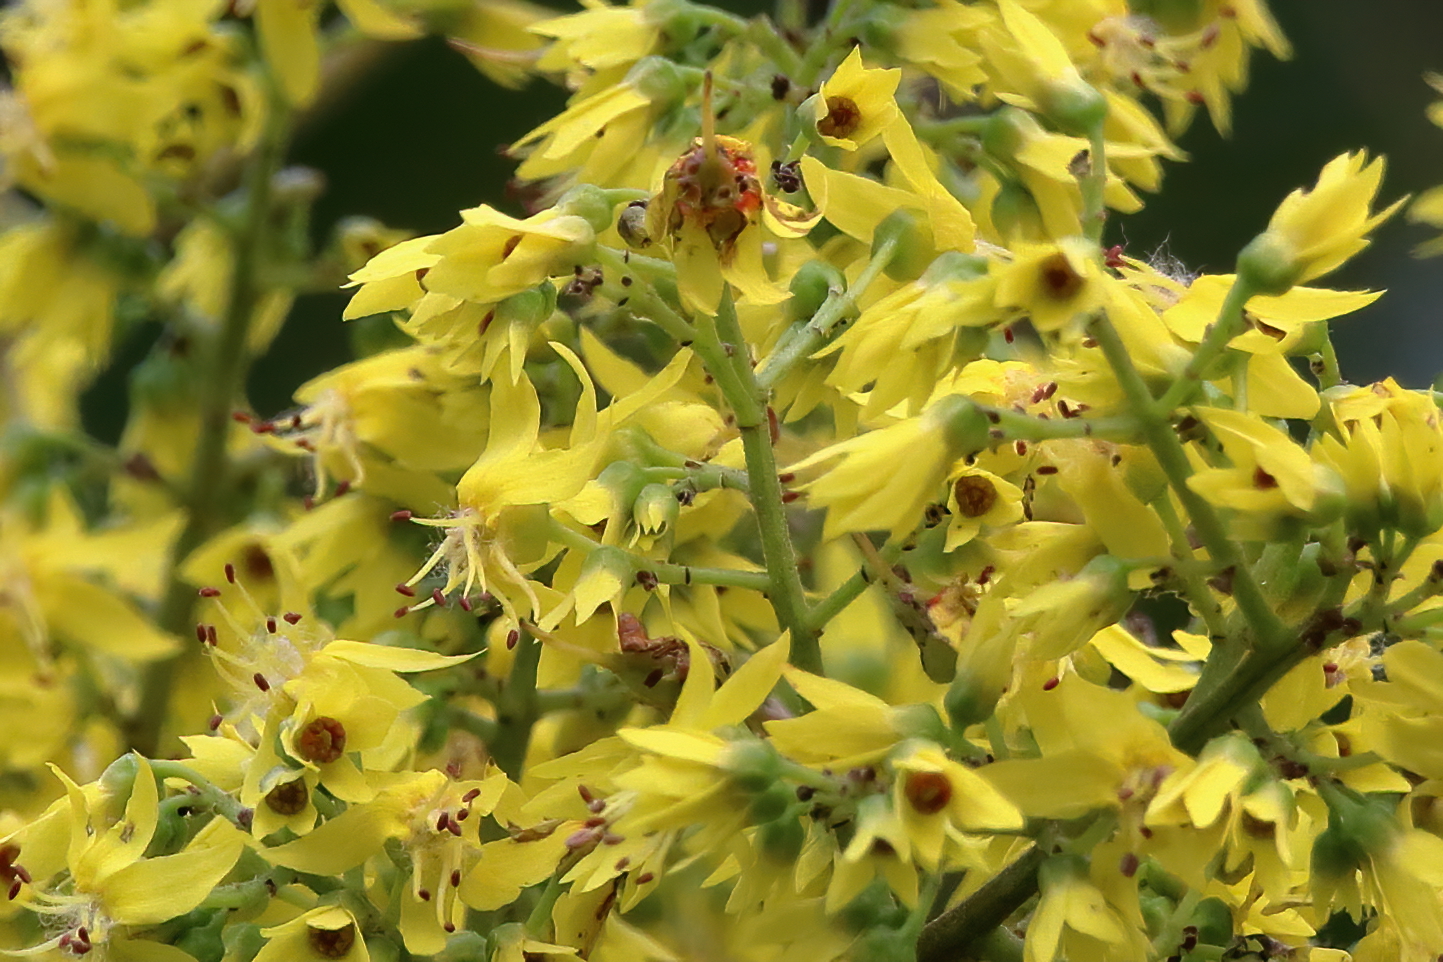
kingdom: Plantae
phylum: Tracheophyta
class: Magnoliopsida
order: Sapindales
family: Sapindaceae
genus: Koelreuteria
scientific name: Koelreuteria elegans
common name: Chinese flame tree
